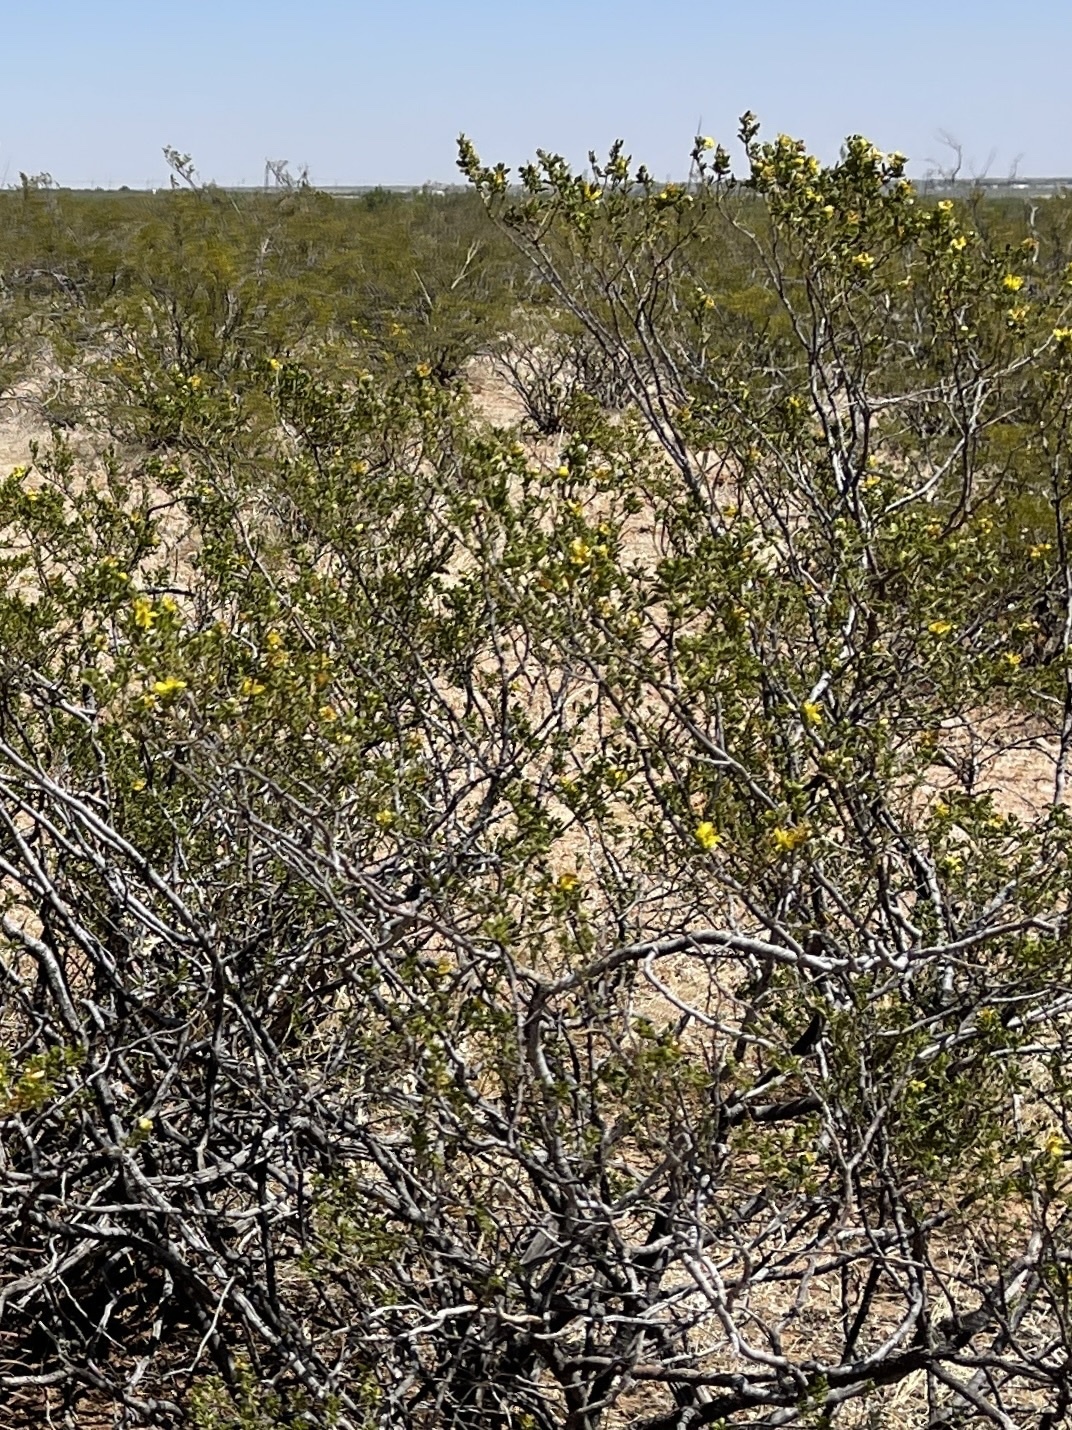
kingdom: Plantae
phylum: Tracheophyta
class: Magnoliopsida
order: Zygophyllales
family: Zygophyllaceae
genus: Larrea
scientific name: Larrea tridentata
